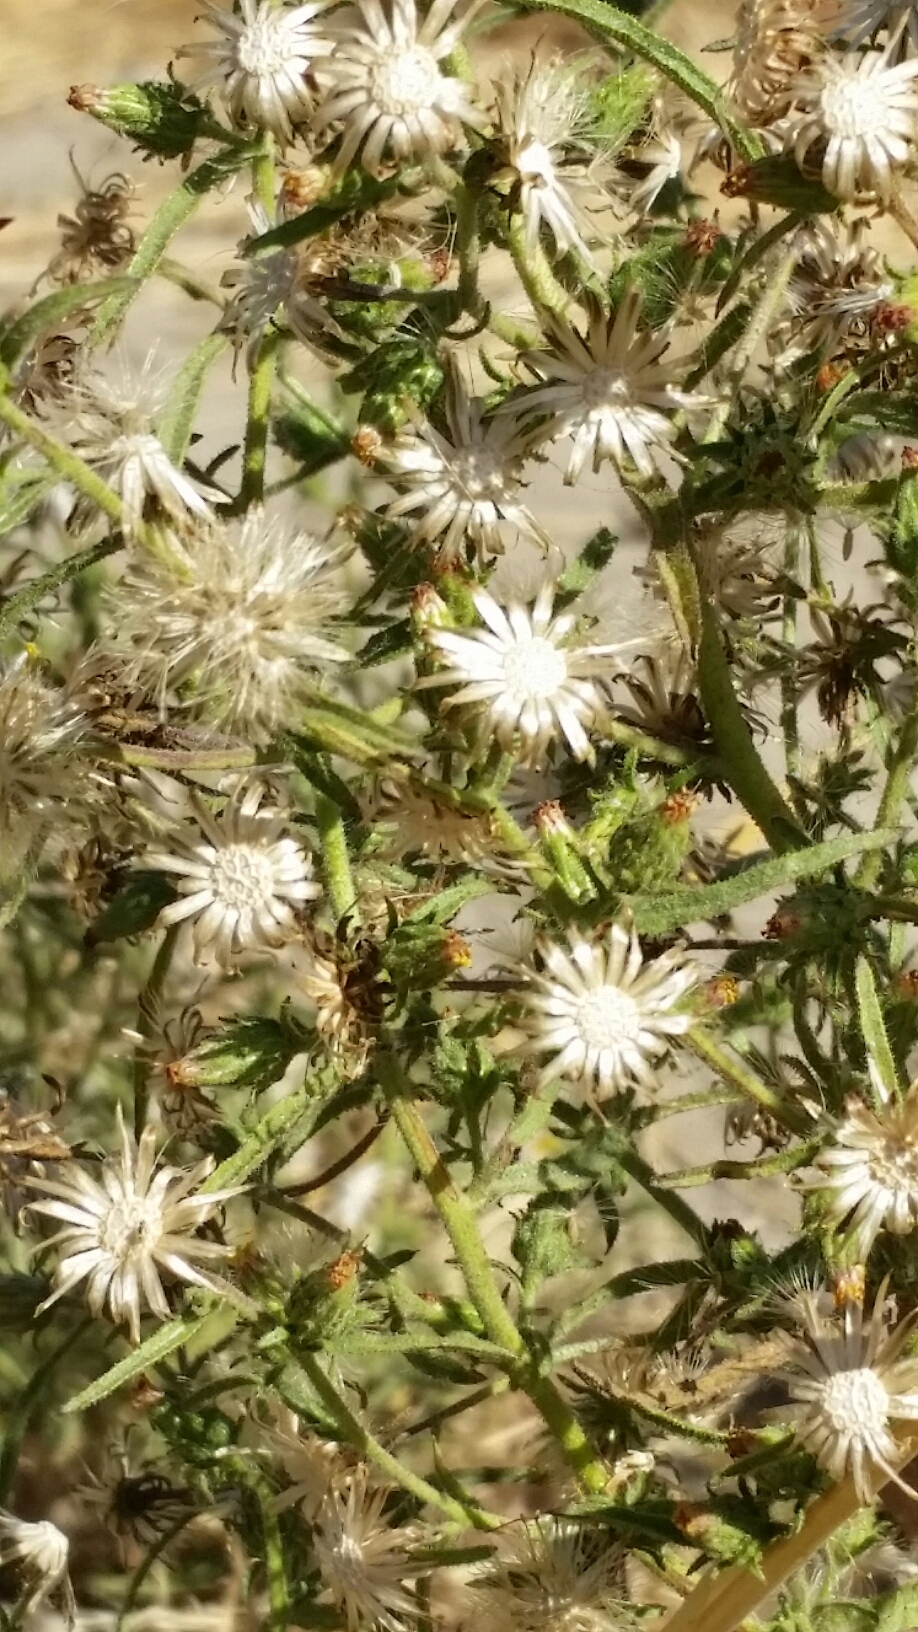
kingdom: Plantae
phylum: Tracheophyta
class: Magnoliopsida
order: Asterales
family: Asteraceae
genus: Dittrichia
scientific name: Dittrichia graveolens
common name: Stinking fleabane
